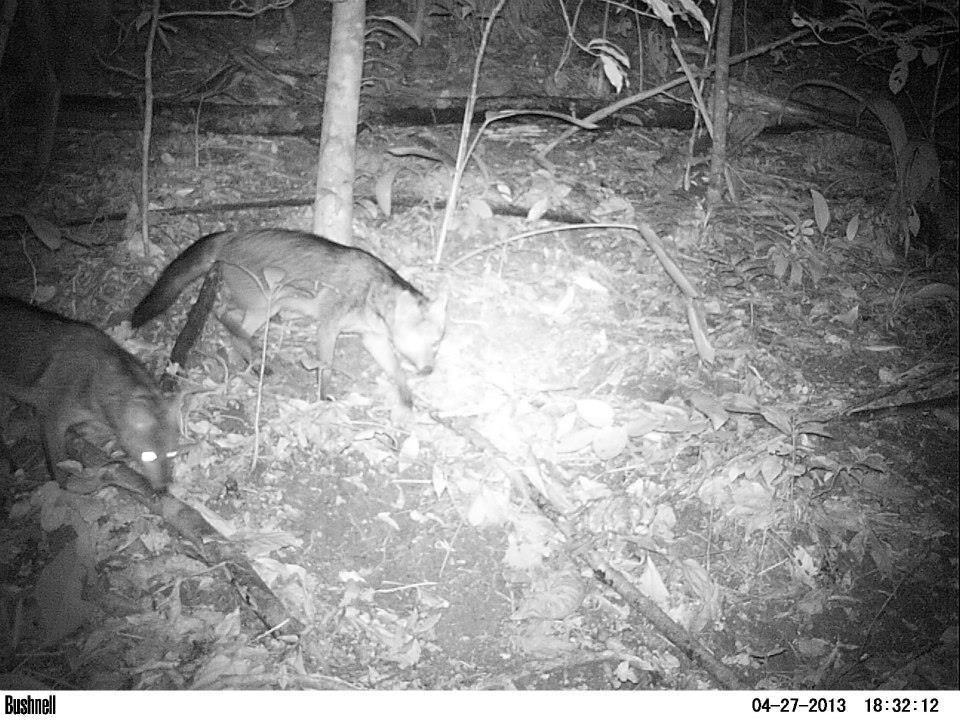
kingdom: Animalia
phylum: Chordata
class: Mammalia
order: Carnivora
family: Canidae
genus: Cerdocyon
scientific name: Cerdocyon thous
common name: Crab-eating fox
